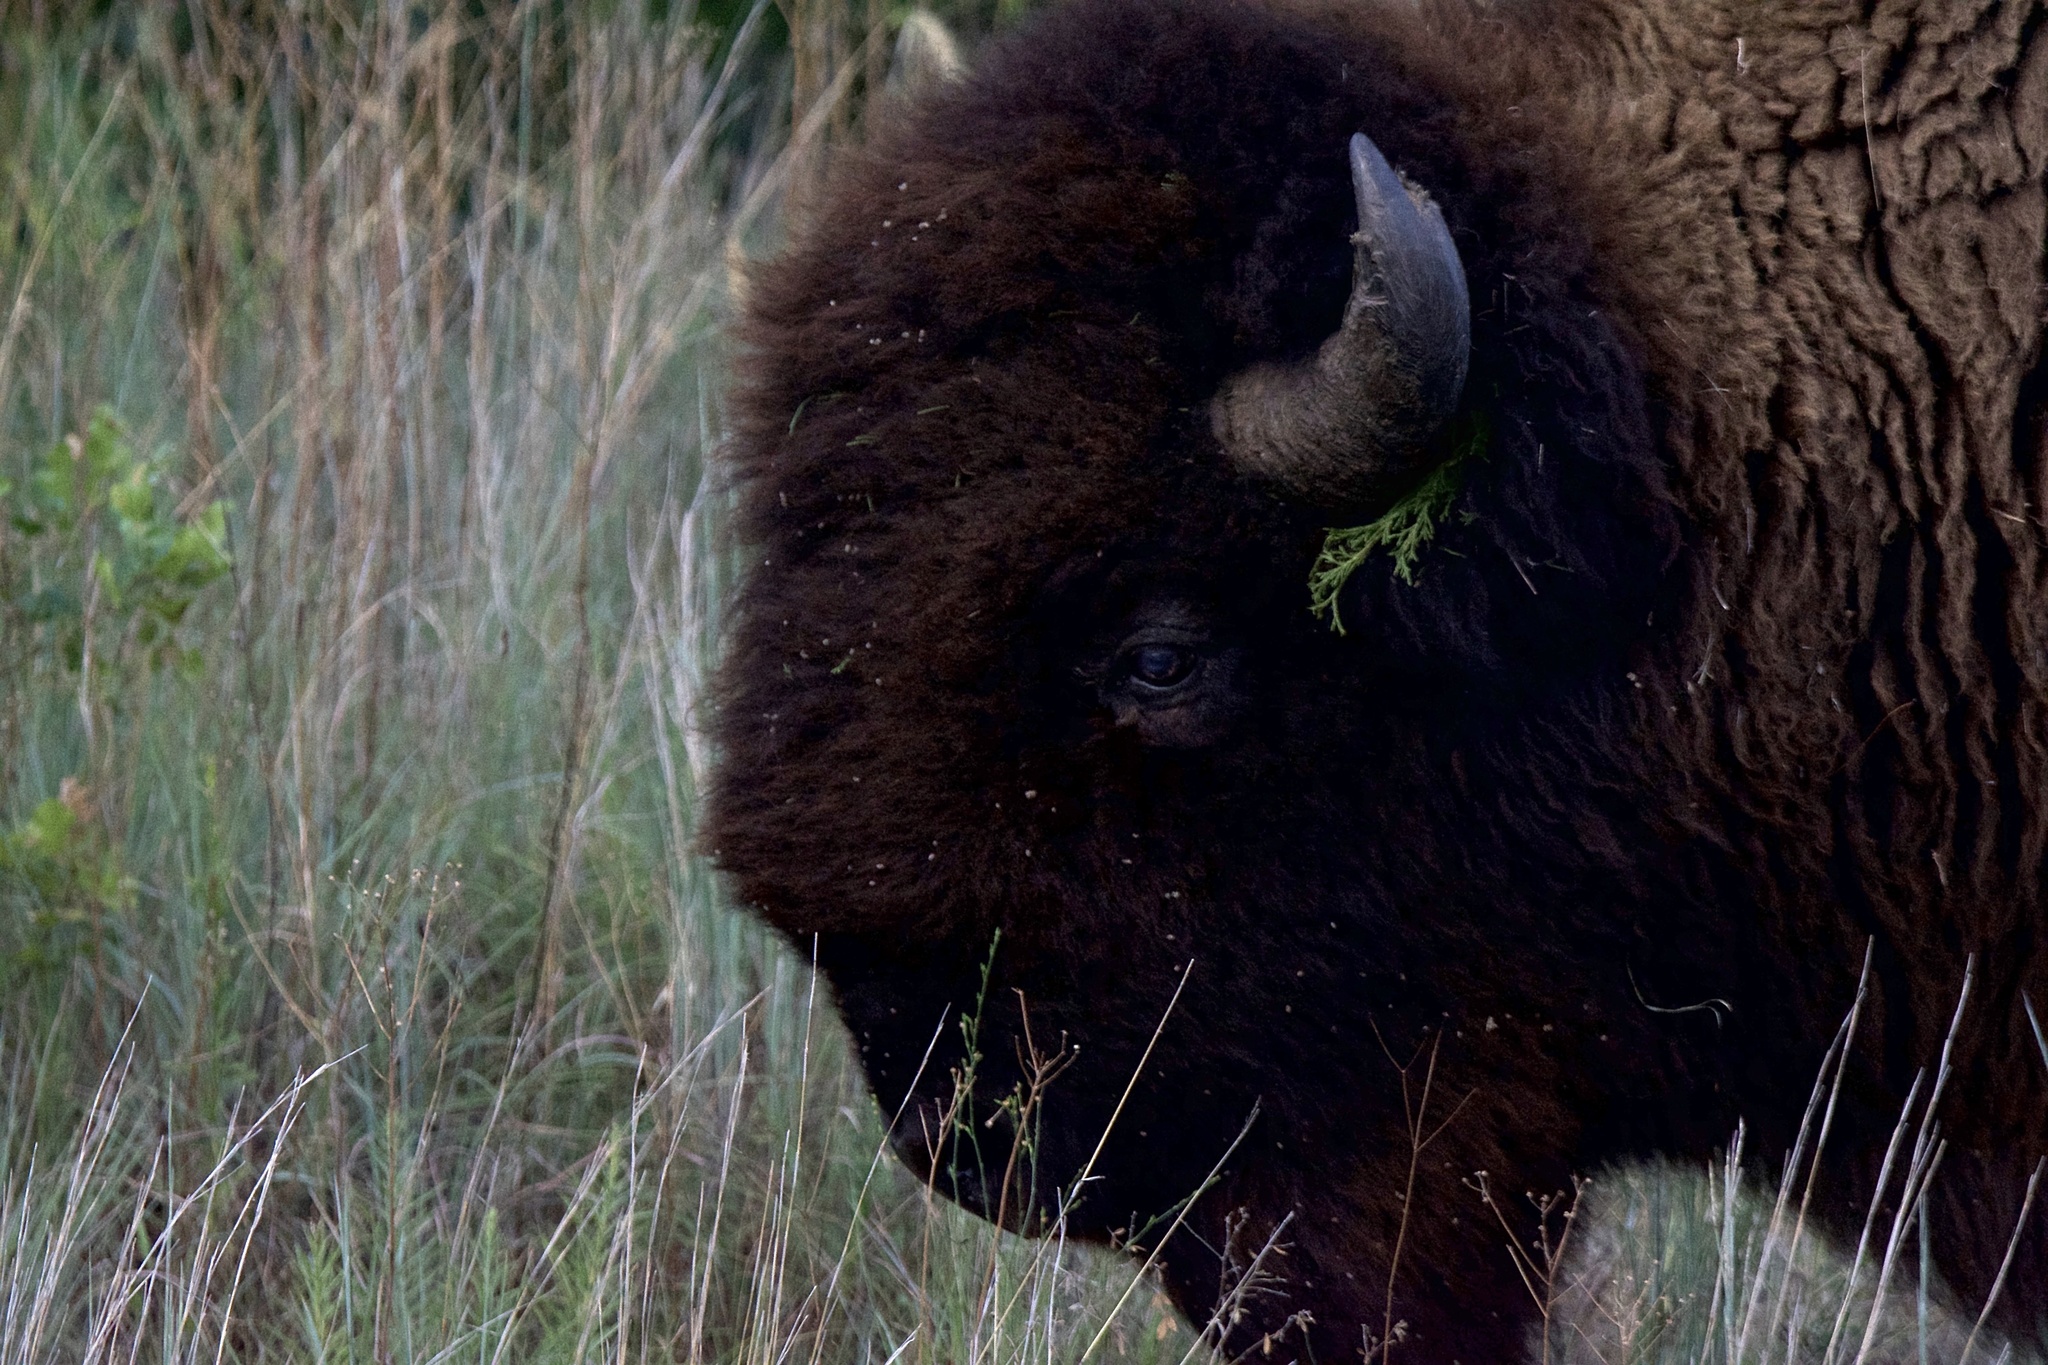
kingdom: Animalia
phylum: Chordata
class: Mammalia
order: Artiodactyla
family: Bovidae
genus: Bison
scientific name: Bison bison
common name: American bison
